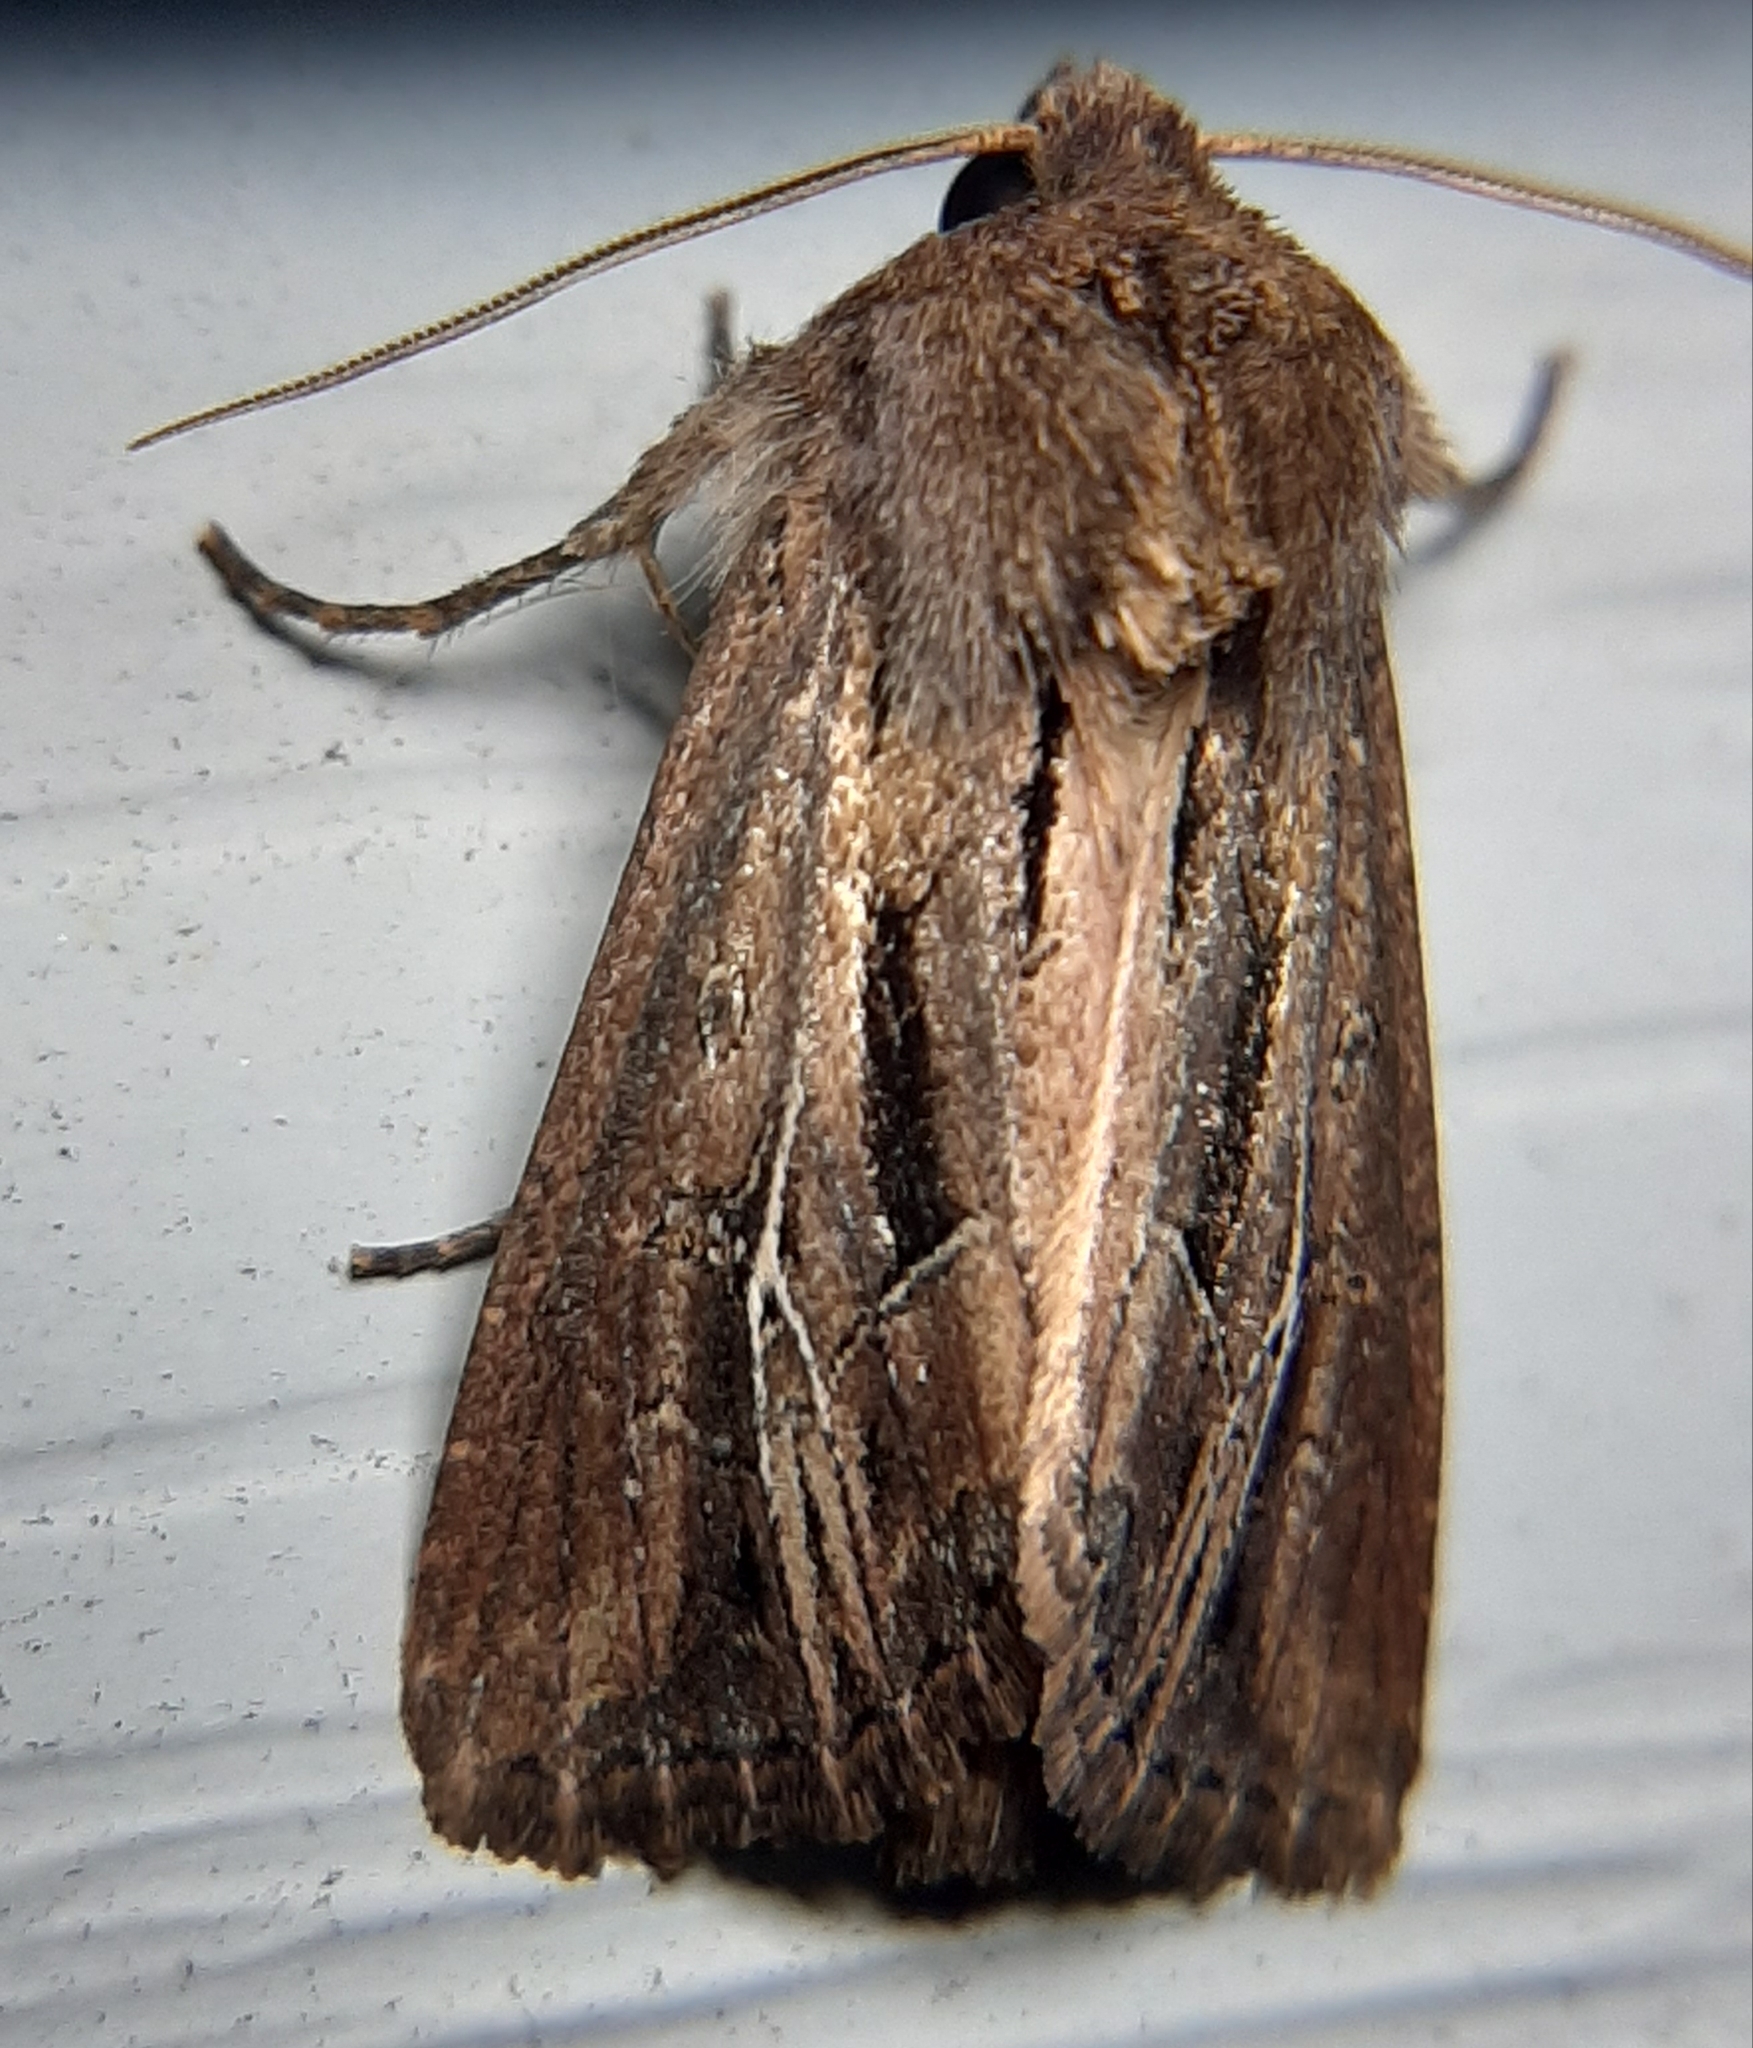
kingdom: Animalia
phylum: Arthropoda
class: Insecta
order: Lepidoptera
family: Noctuidae
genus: Resapamea
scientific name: Resapamea stipata
